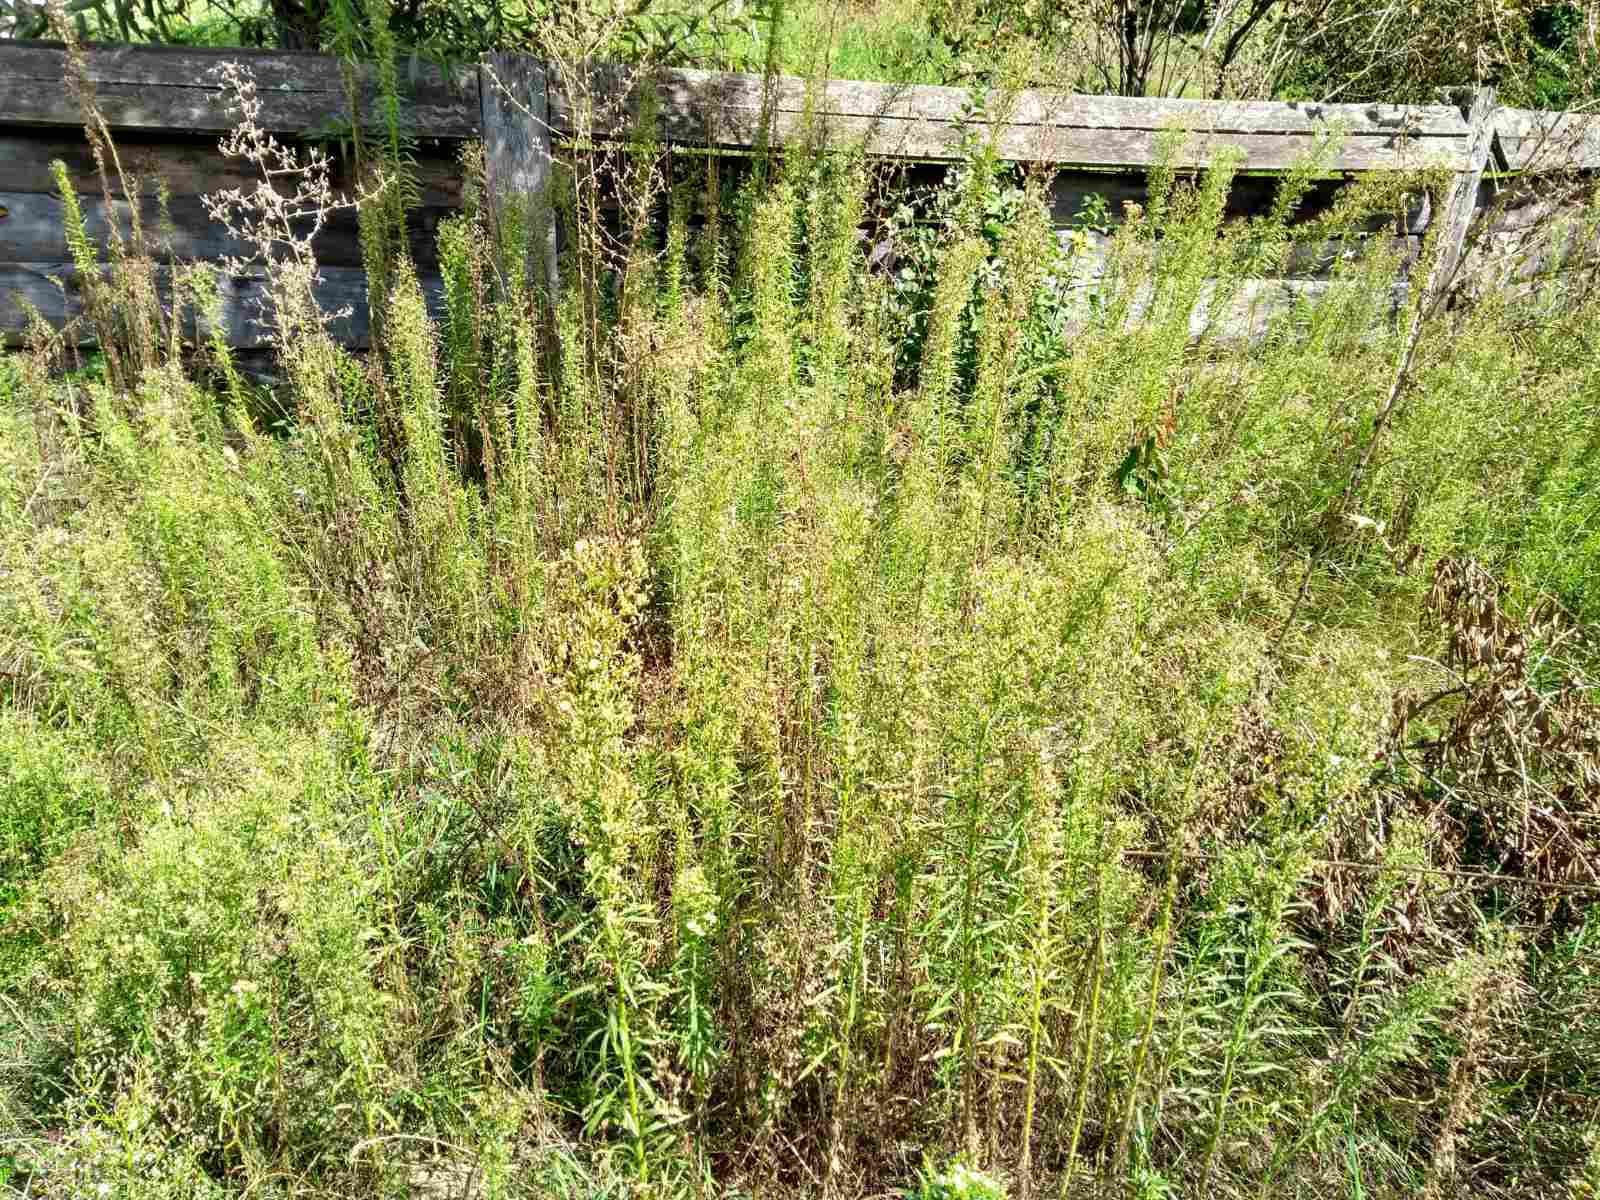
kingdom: Plantae
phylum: Tracheophyta
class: Magnoliopsida
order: Asterales
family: Asteraceae
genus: Erigeron
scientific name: Erigeron canadensis
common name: Canadian fleabane
